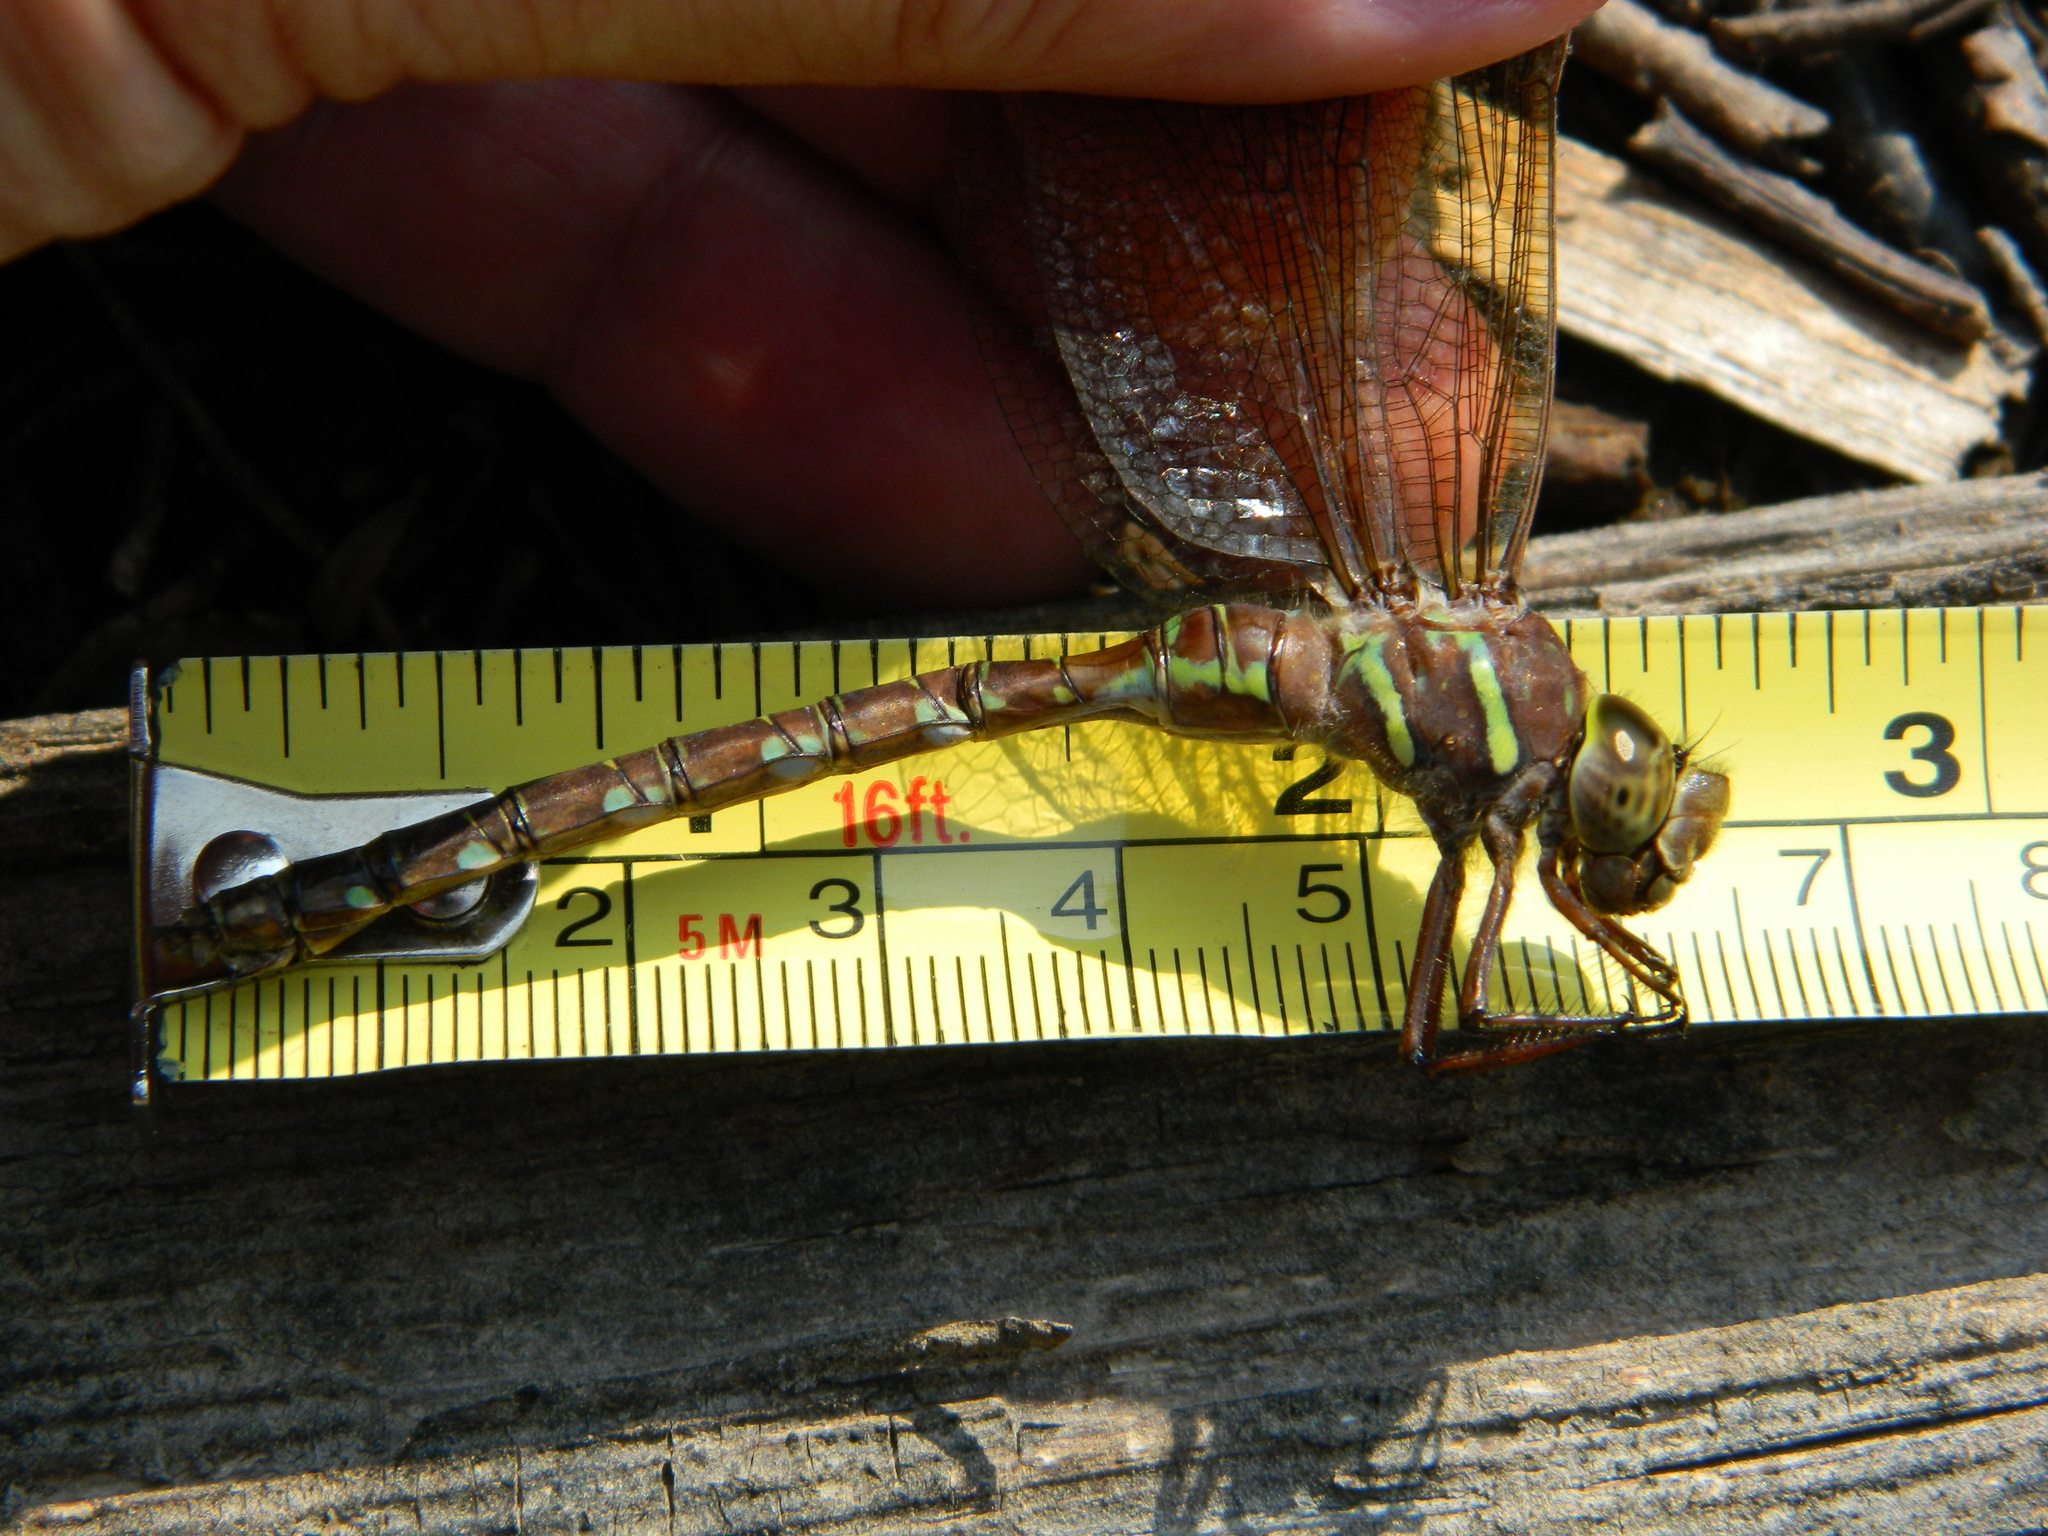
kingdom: Animalia
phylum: Arthropoda
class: Insecta
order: Odonata
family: Aeshnidae
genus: Aeshna
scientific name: Aeshna umbrosa
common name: Shadow darner
